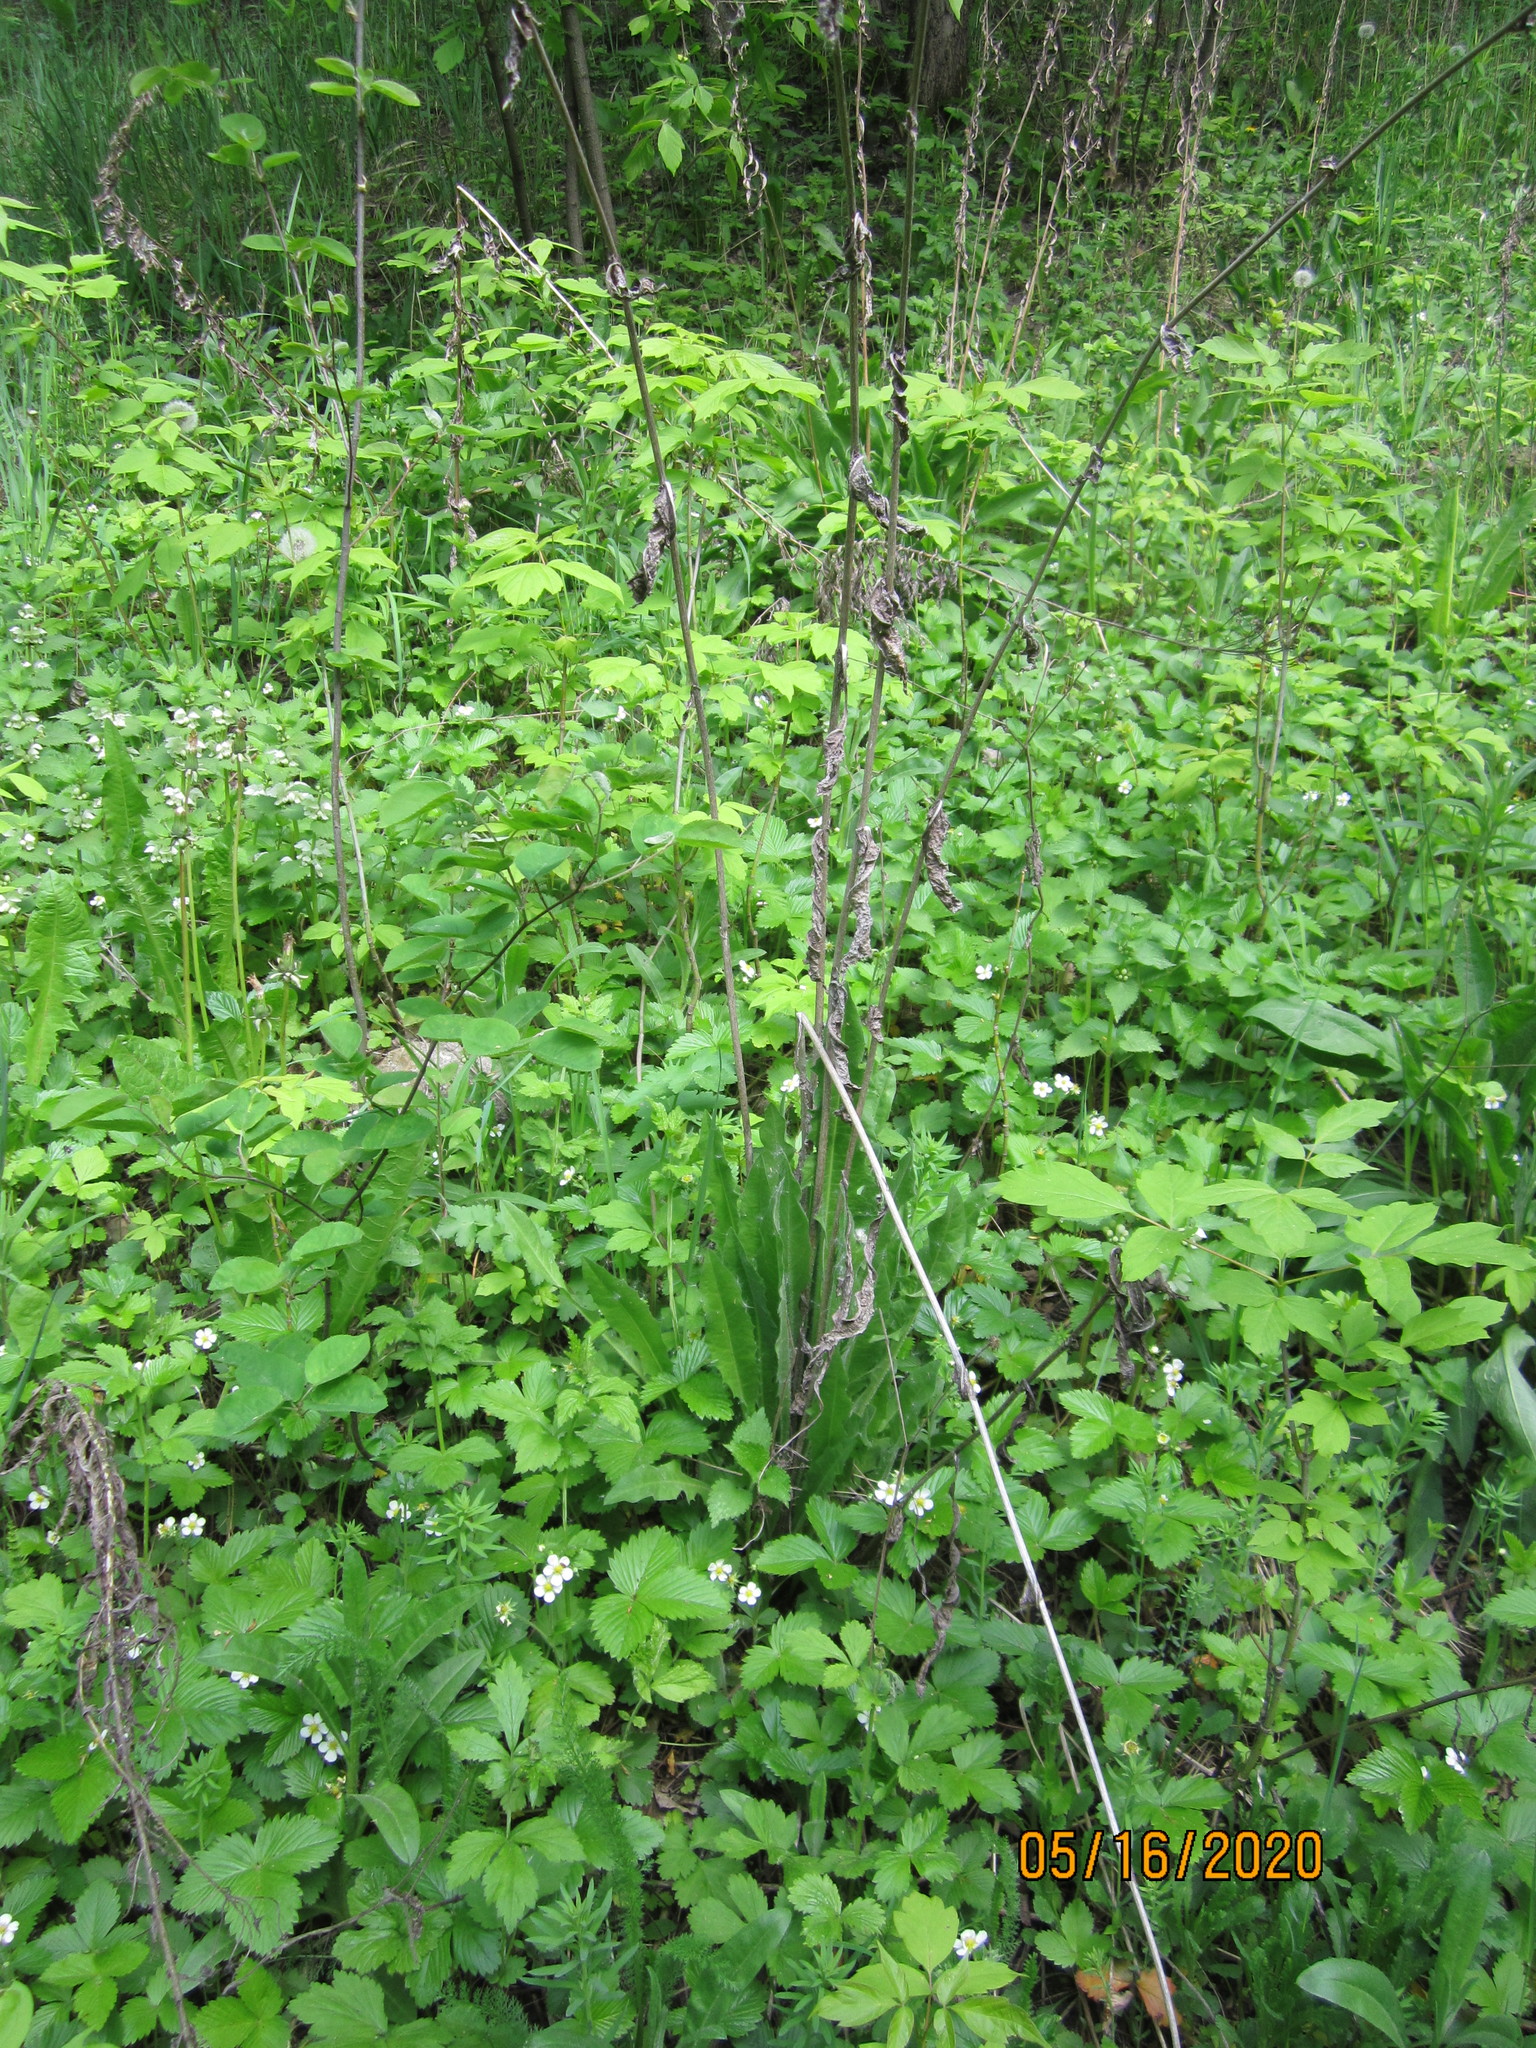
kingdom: Plantae
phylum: Tracheophyta
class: Magnoliopsida
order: Asterales
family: Asteraceae
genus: Cichorium
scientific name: Cichorium intybus
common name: Chicory
